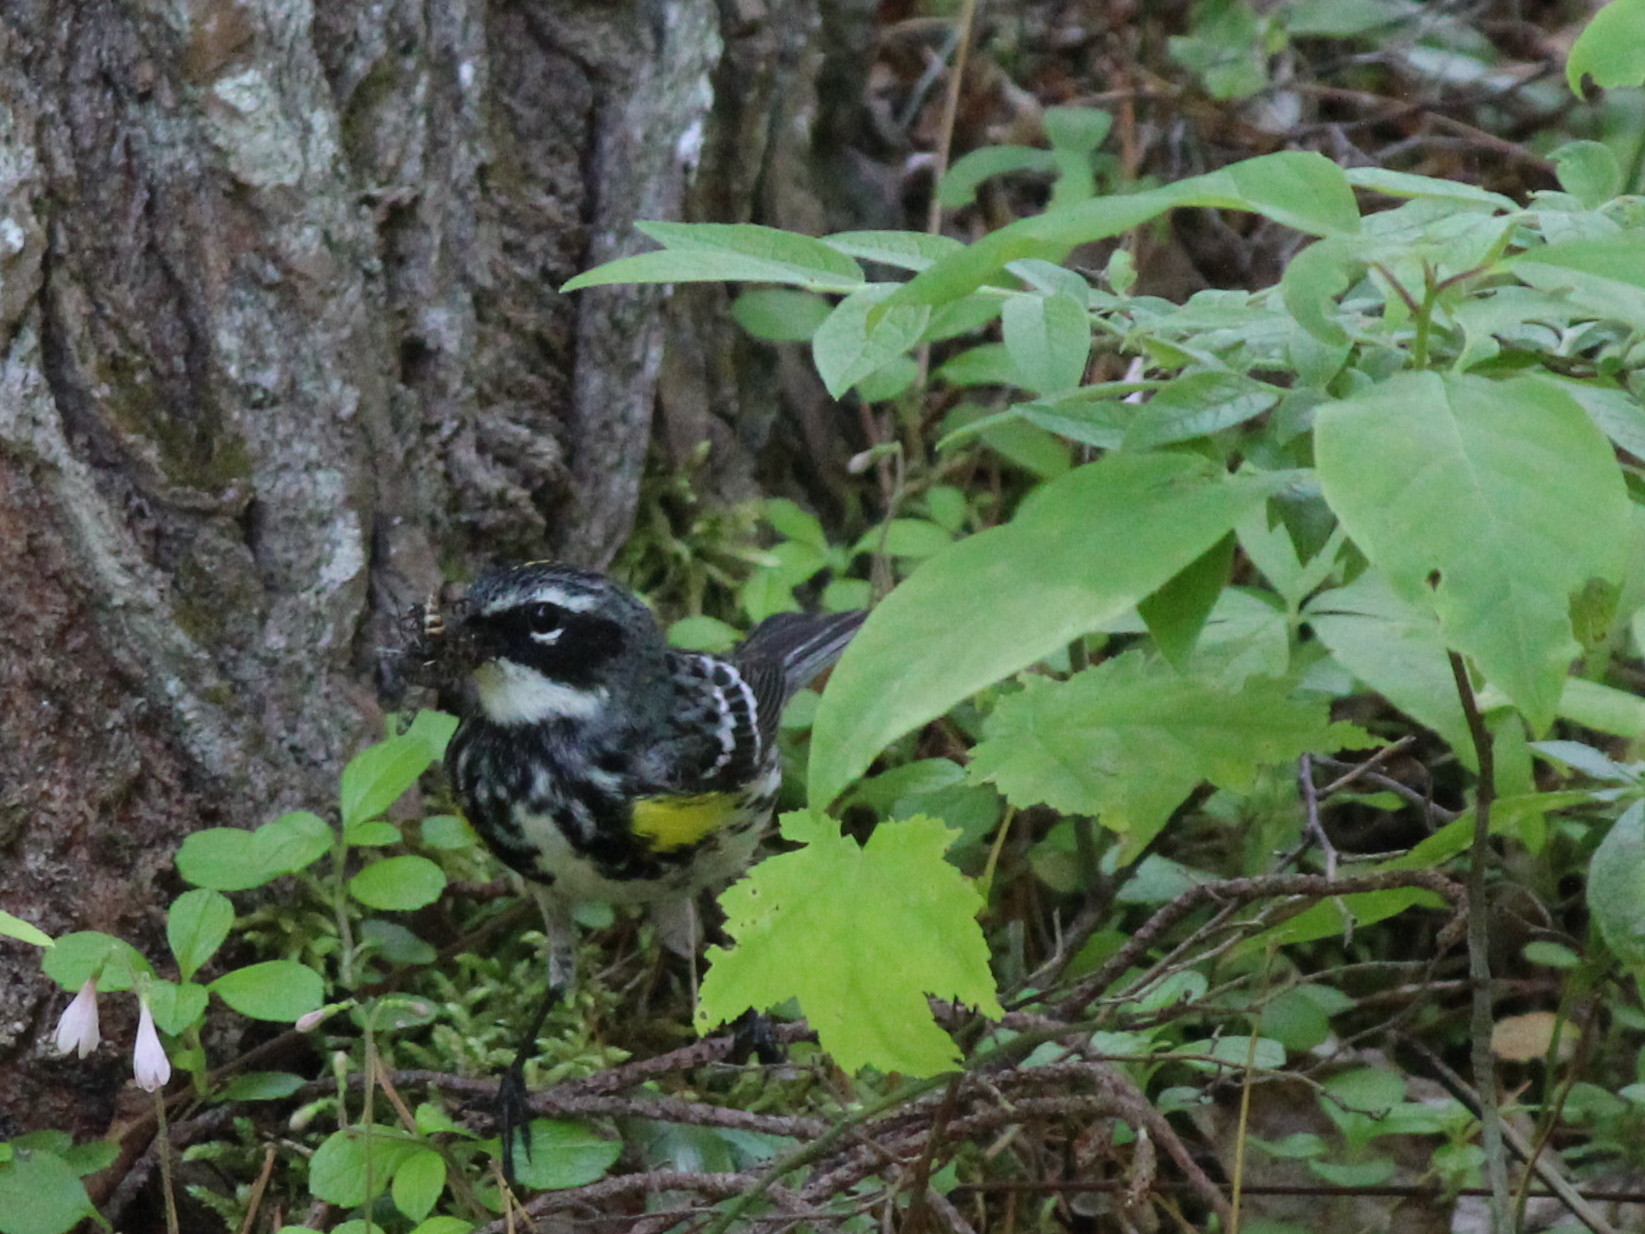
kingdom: Animalia
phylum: Chordata
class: Aves
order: Passeriformes
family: Parulidae
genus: Setophaga
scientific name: Setophaga coronata
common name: Myrtle warbler
